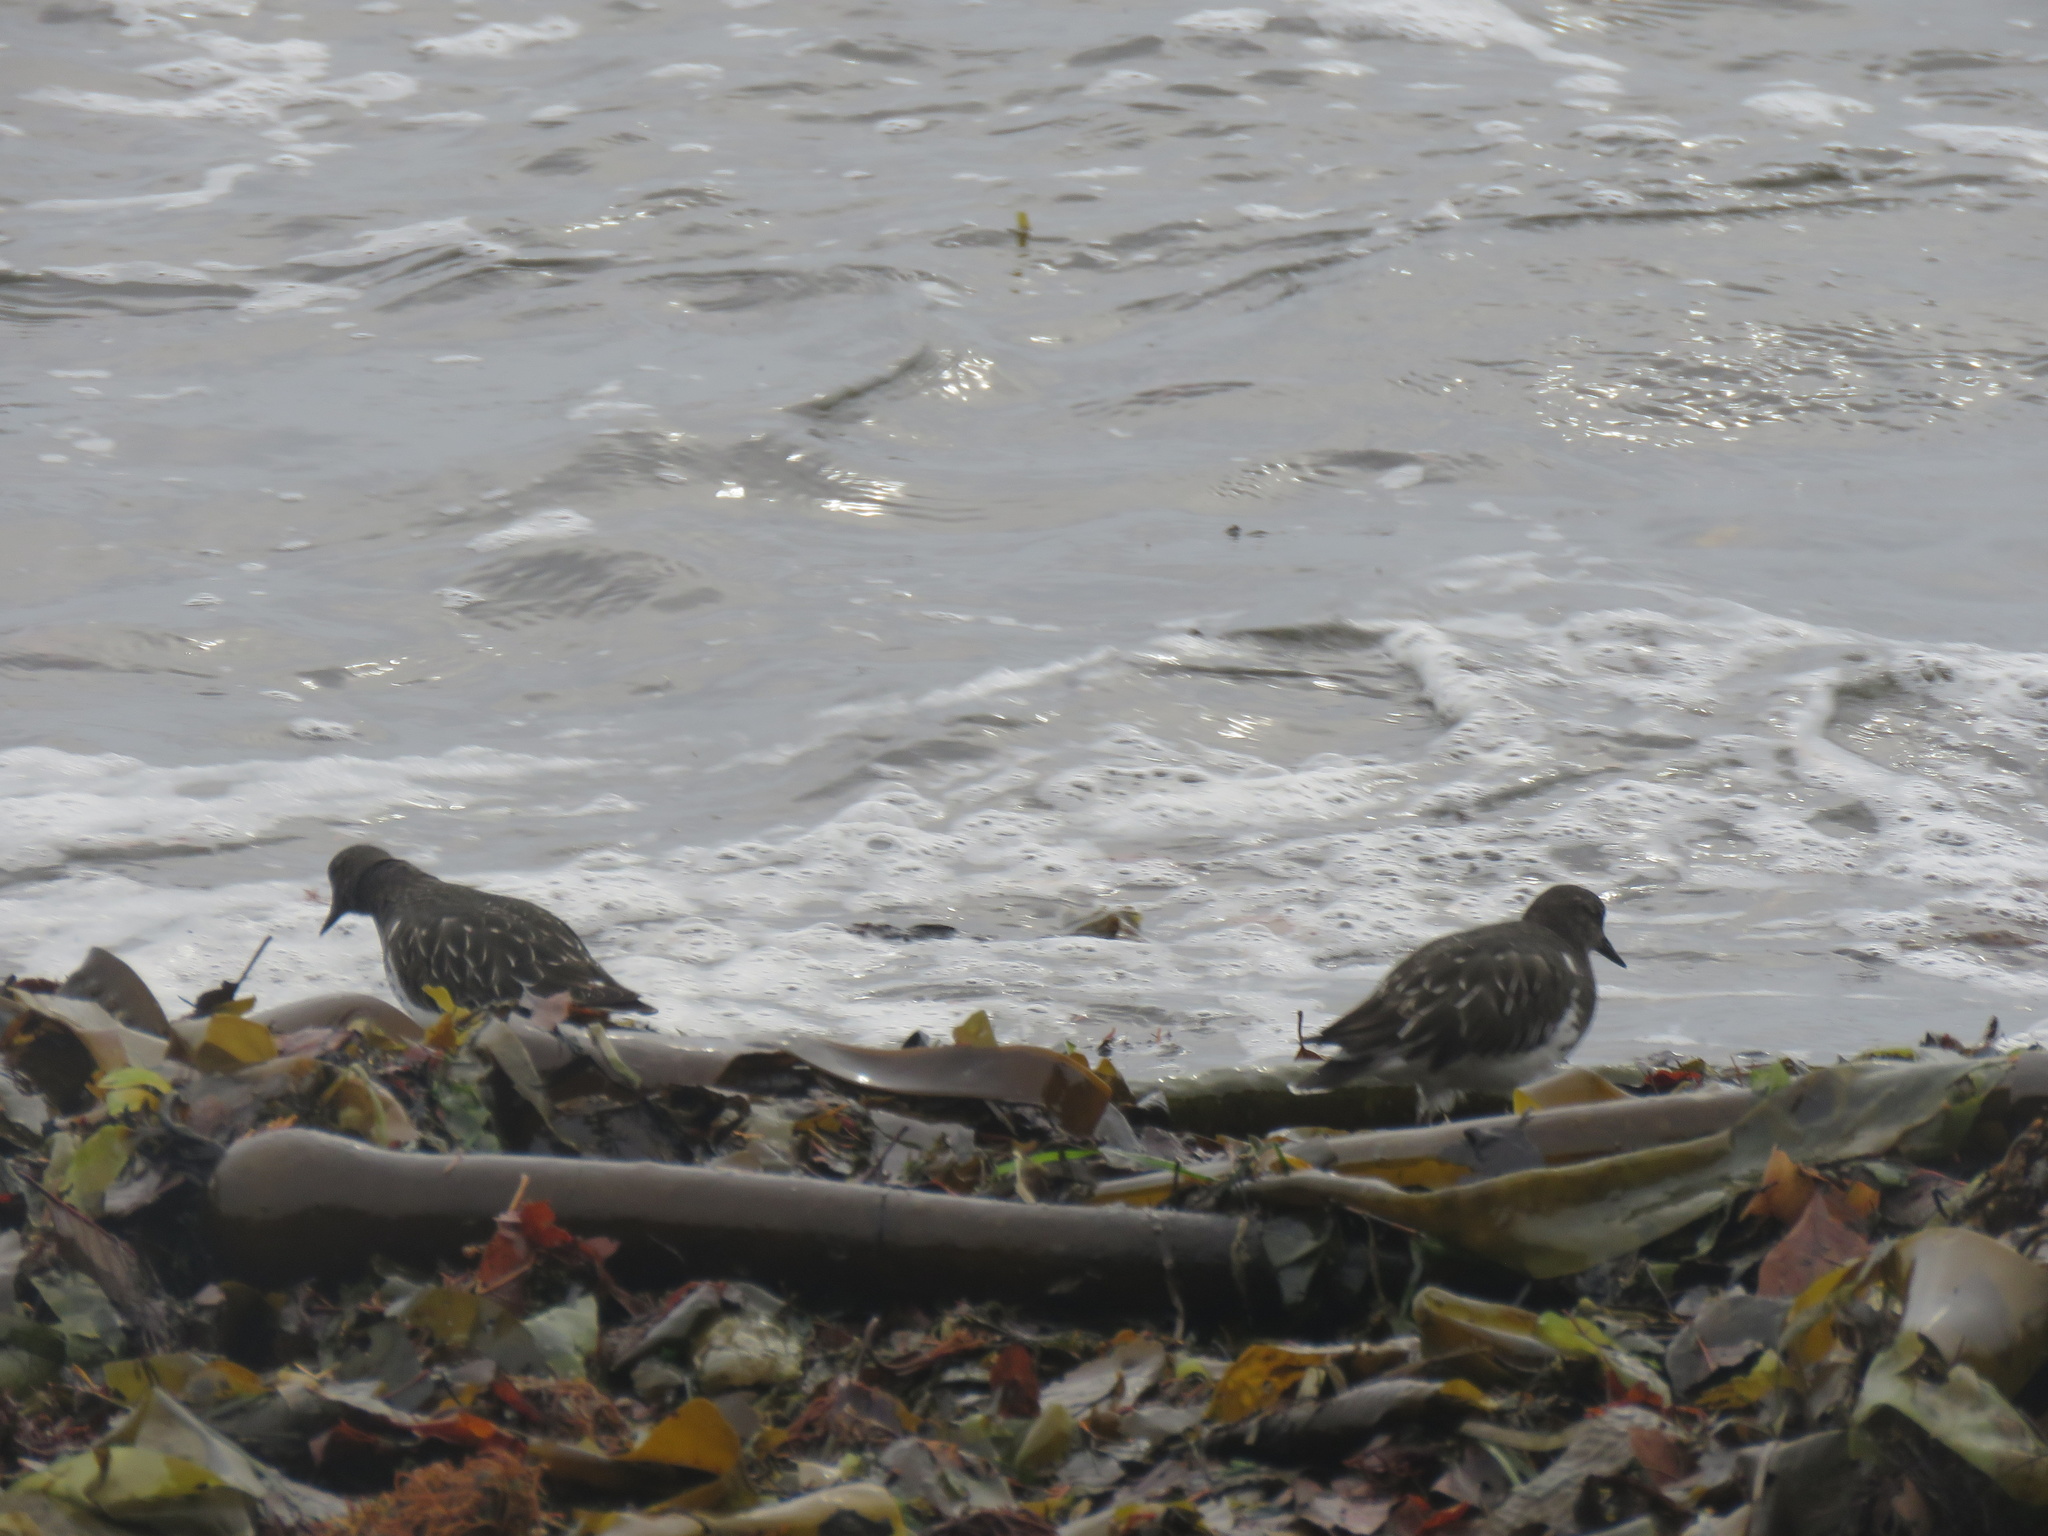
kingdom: Animalia
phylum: Chordata
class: Aves
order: Charadriiformes
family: Scolopacidae
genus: Arenaria
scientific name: Arenaria melanocephala
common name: Black turnstone
